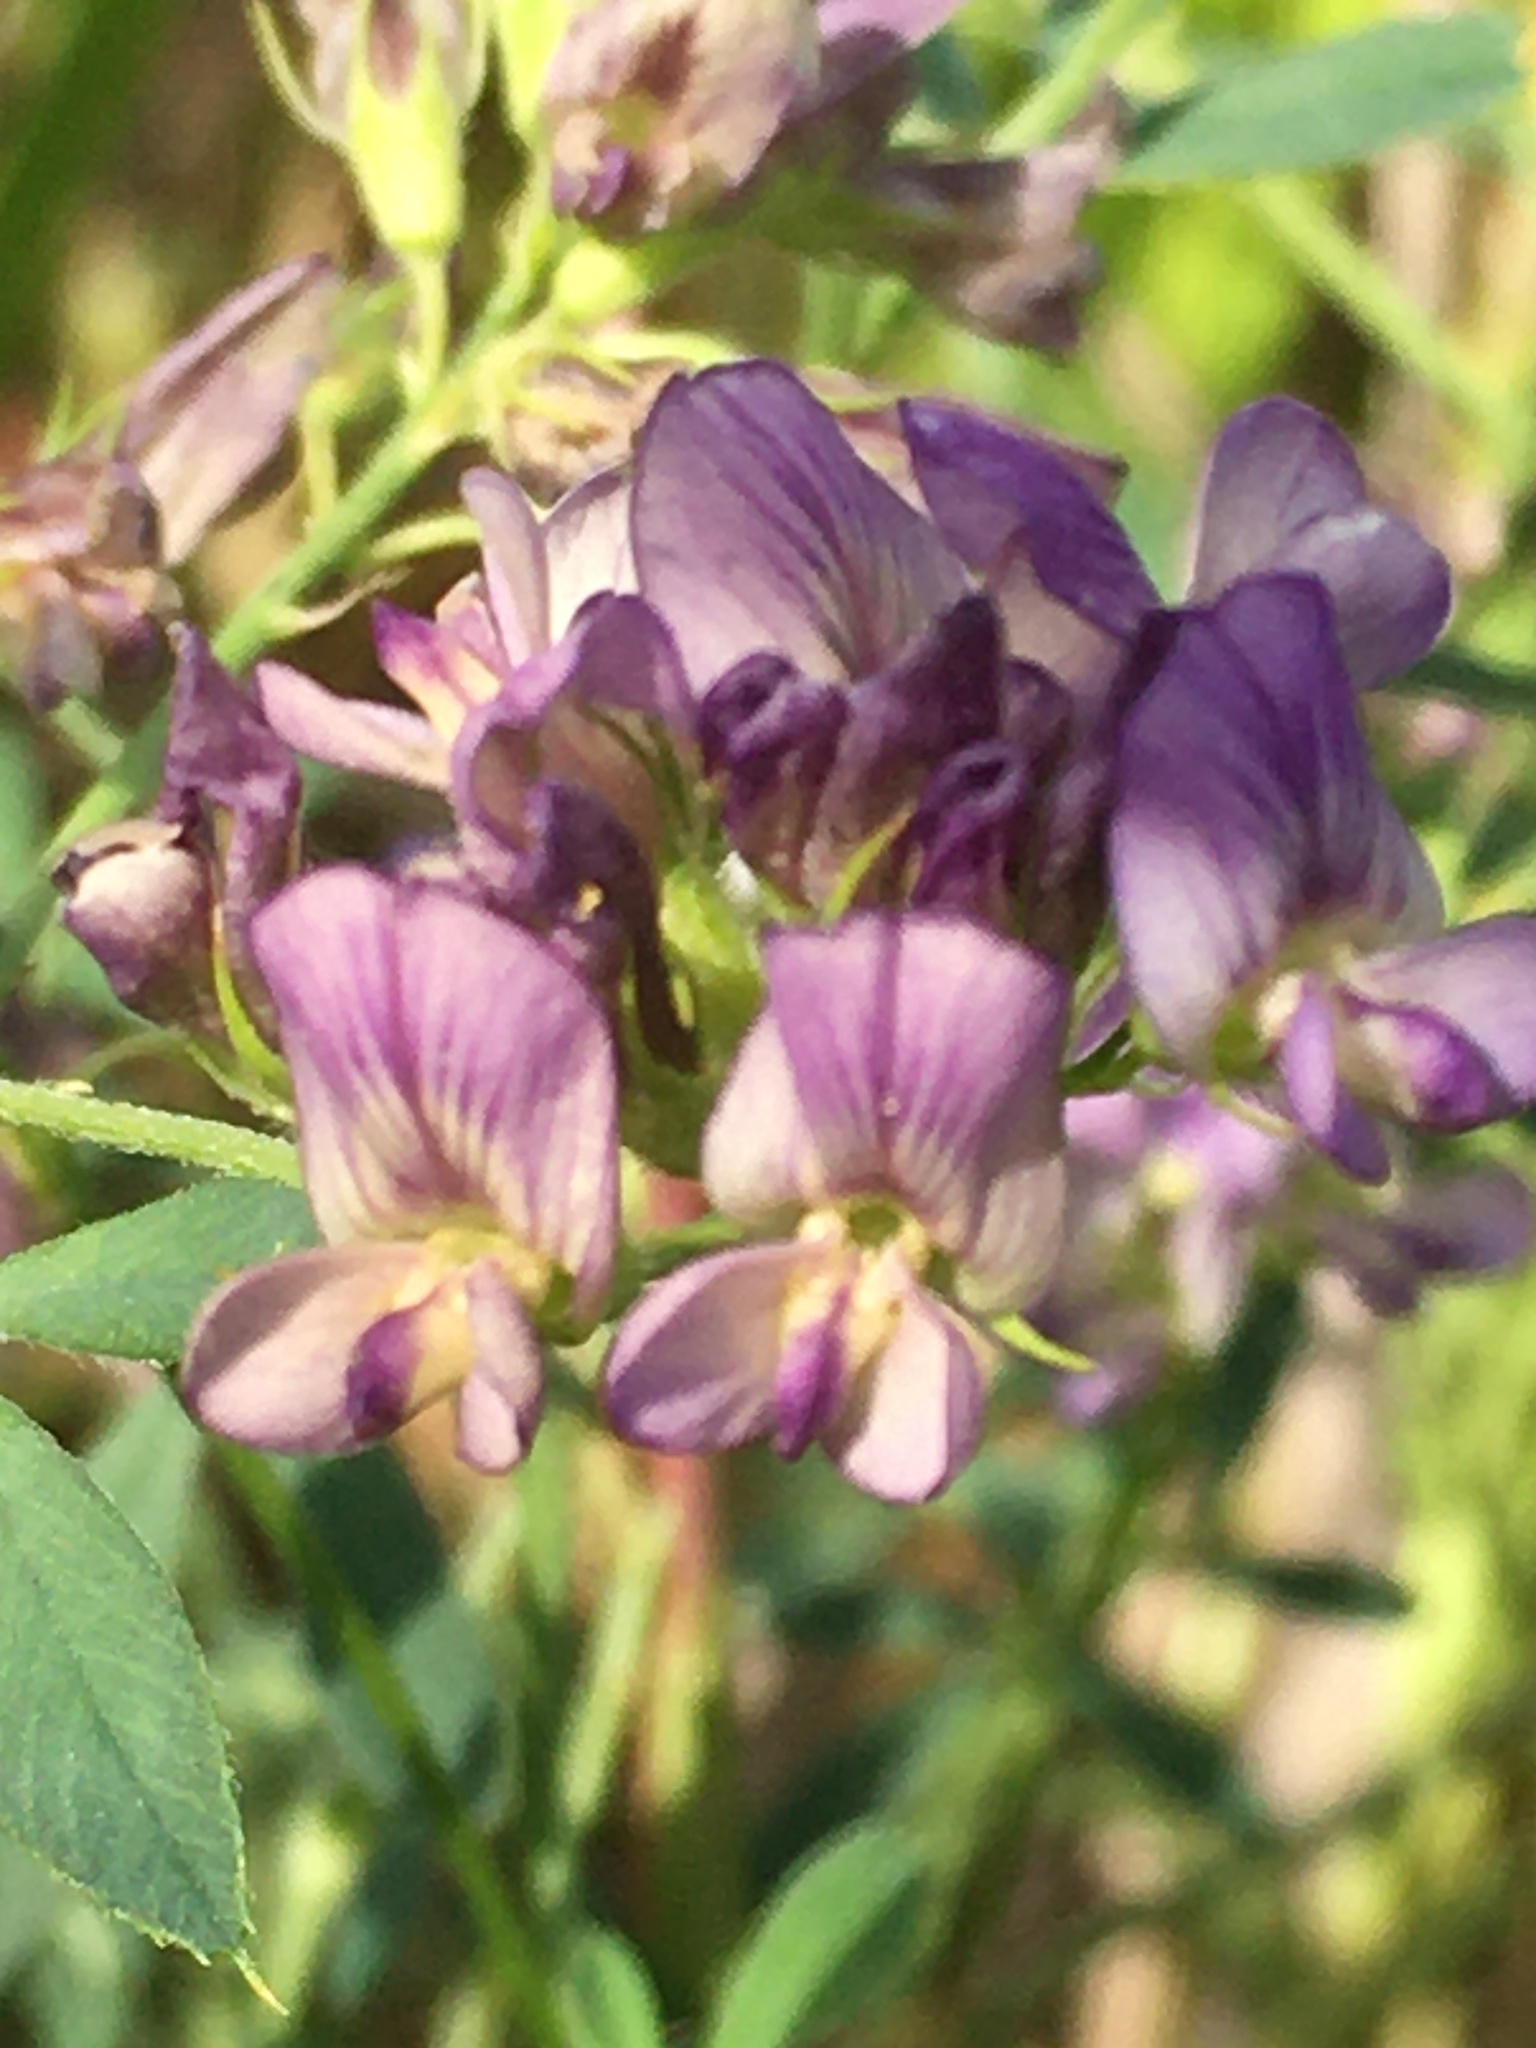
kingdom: Plantae
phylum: Tracheophyta
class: Magnoliopsida
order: Fabales
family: Fabaceae
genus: Medicago
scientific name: Medicago sativa
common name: Alfalfa
